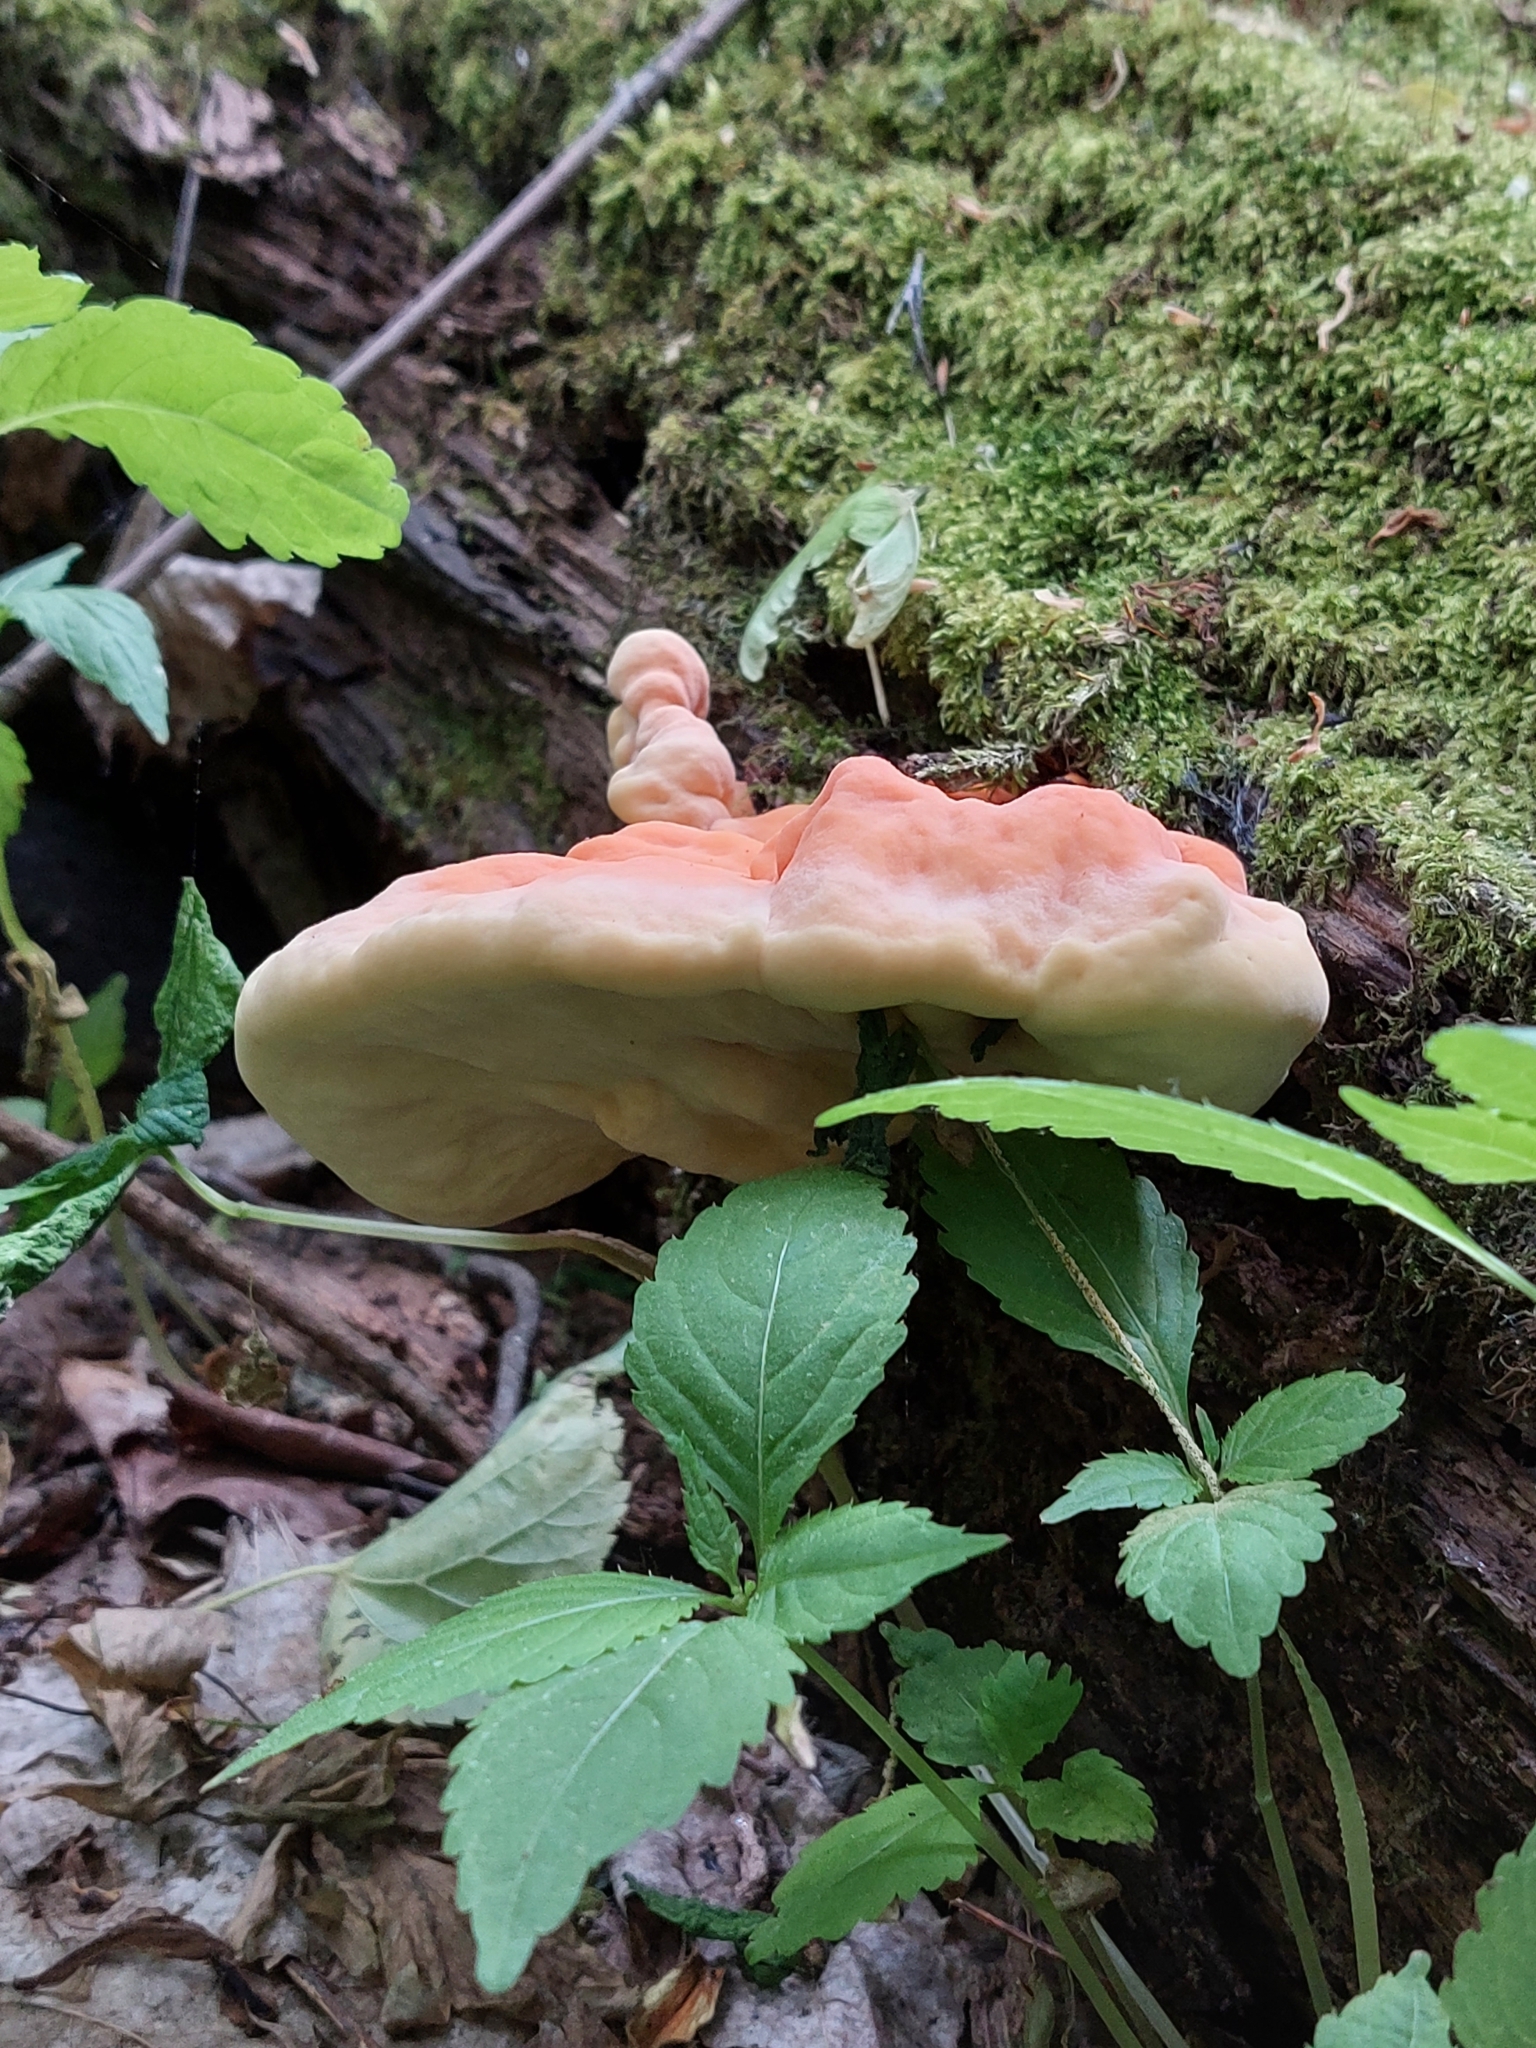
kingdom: Fungi
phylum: Basidiomycota
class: Agaricomycetes
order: Polyporales
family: Laetiporaceae
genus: Laetiporus
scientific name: Laetiporus sulphureus
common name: Chicken of the woods
